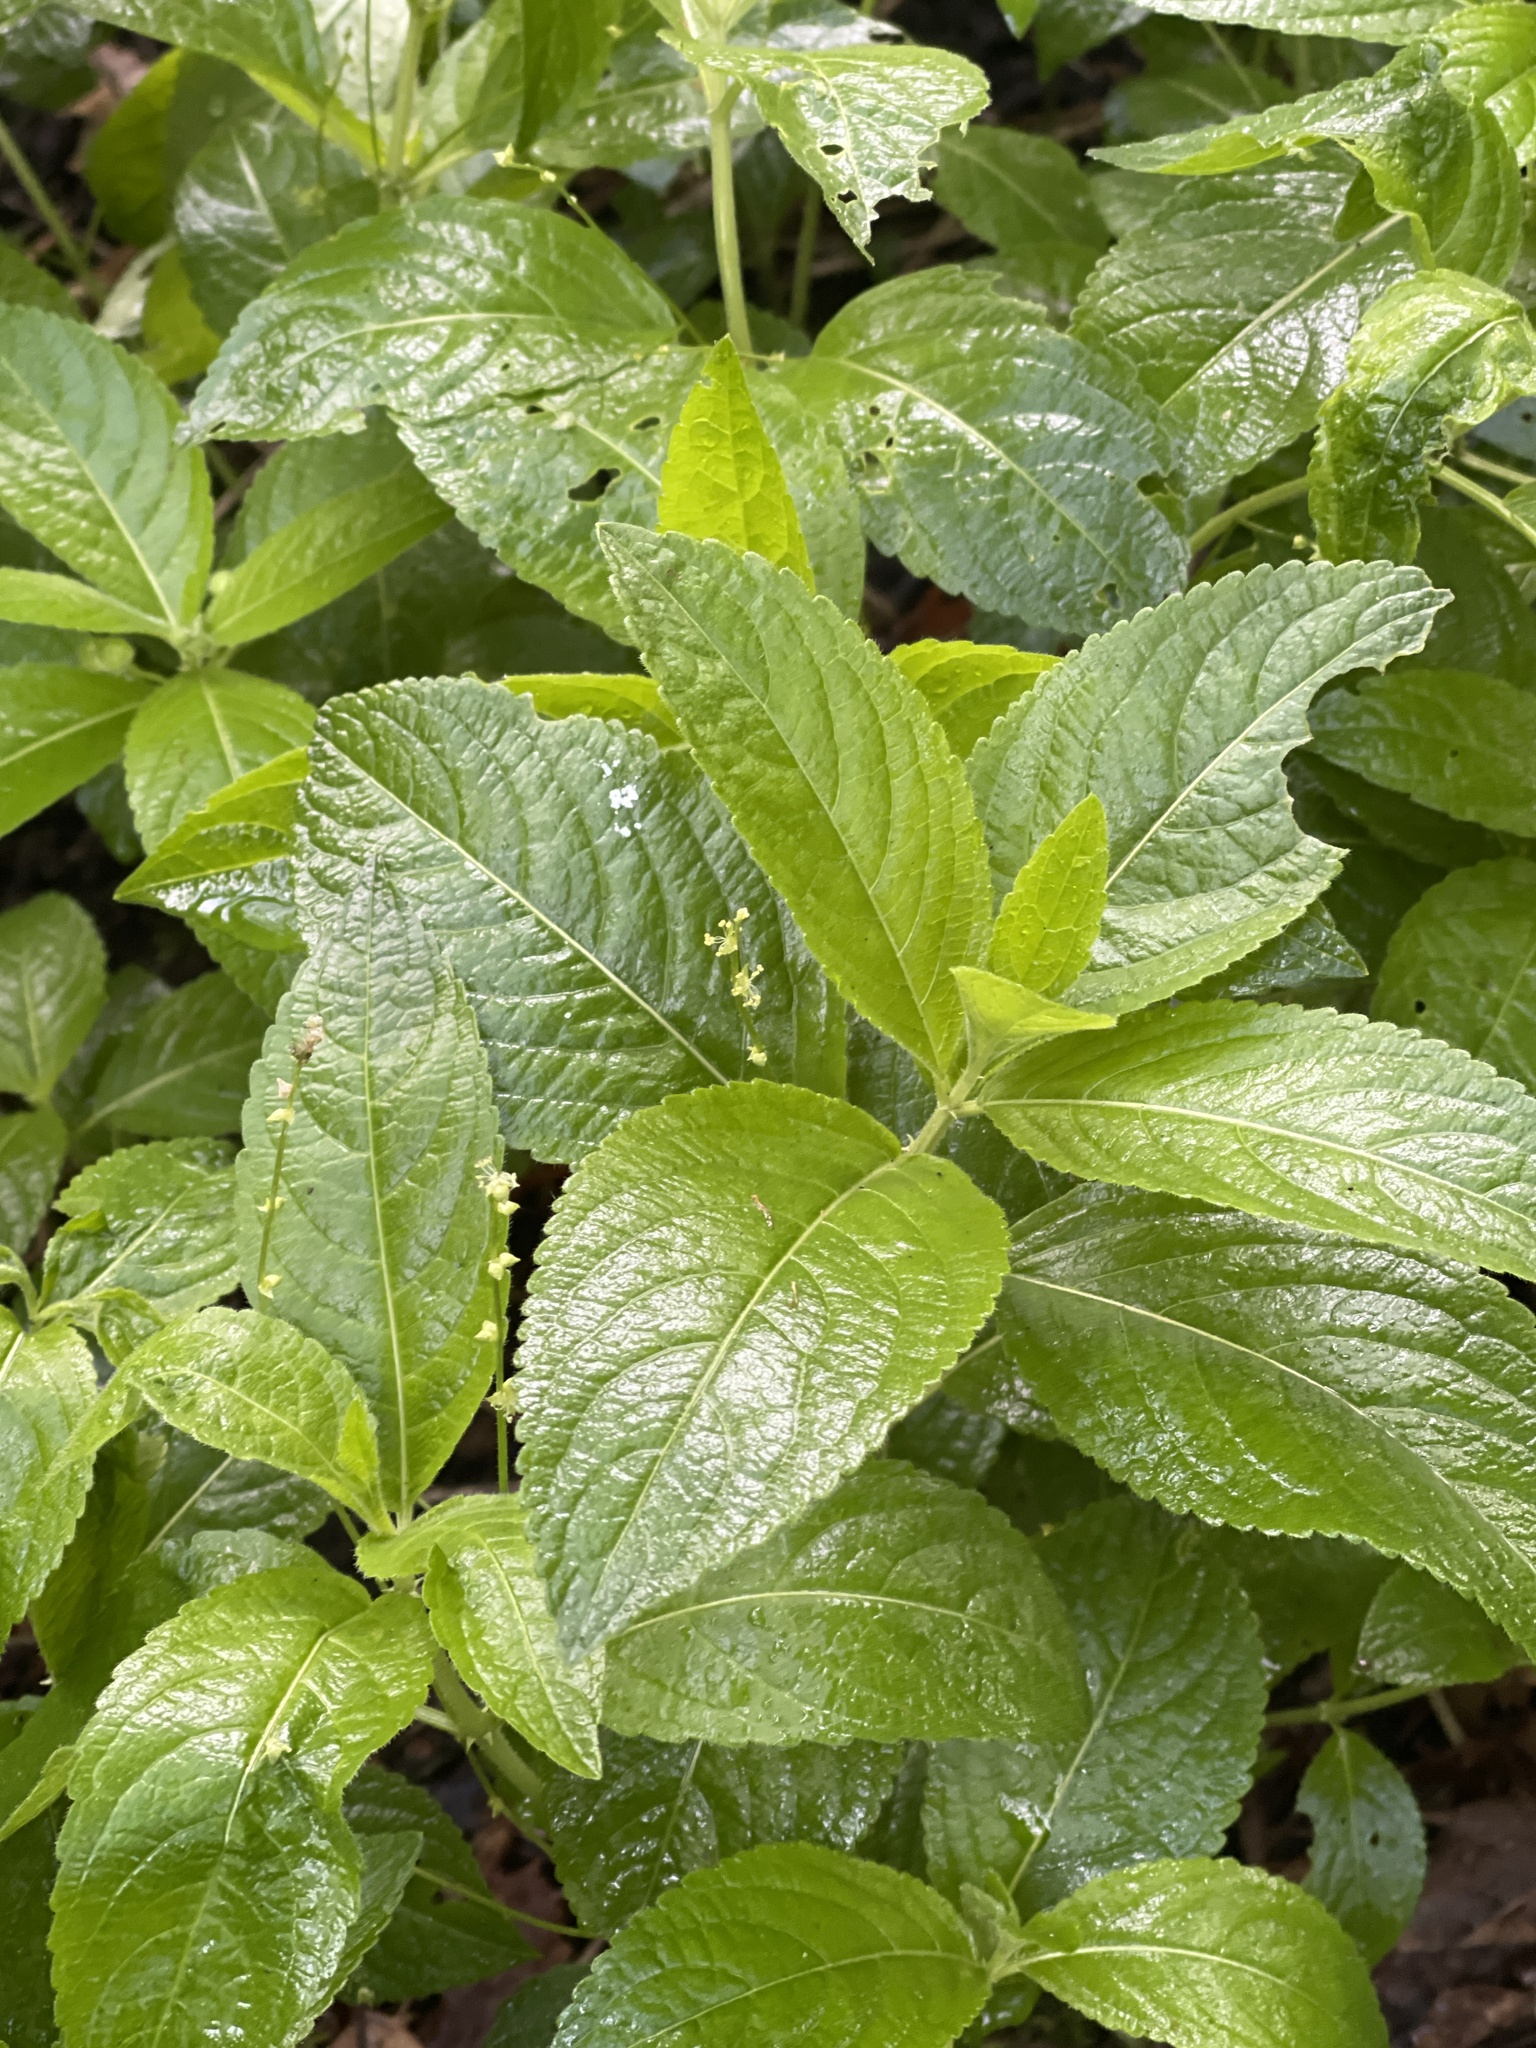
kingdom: Plantae
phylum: Tracheophyta
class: Magnoliopsida
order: Malpighiales
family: Euphorbiaceae
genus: Mercurialis
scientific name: Mercurialis perennis
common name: Dog mercury
